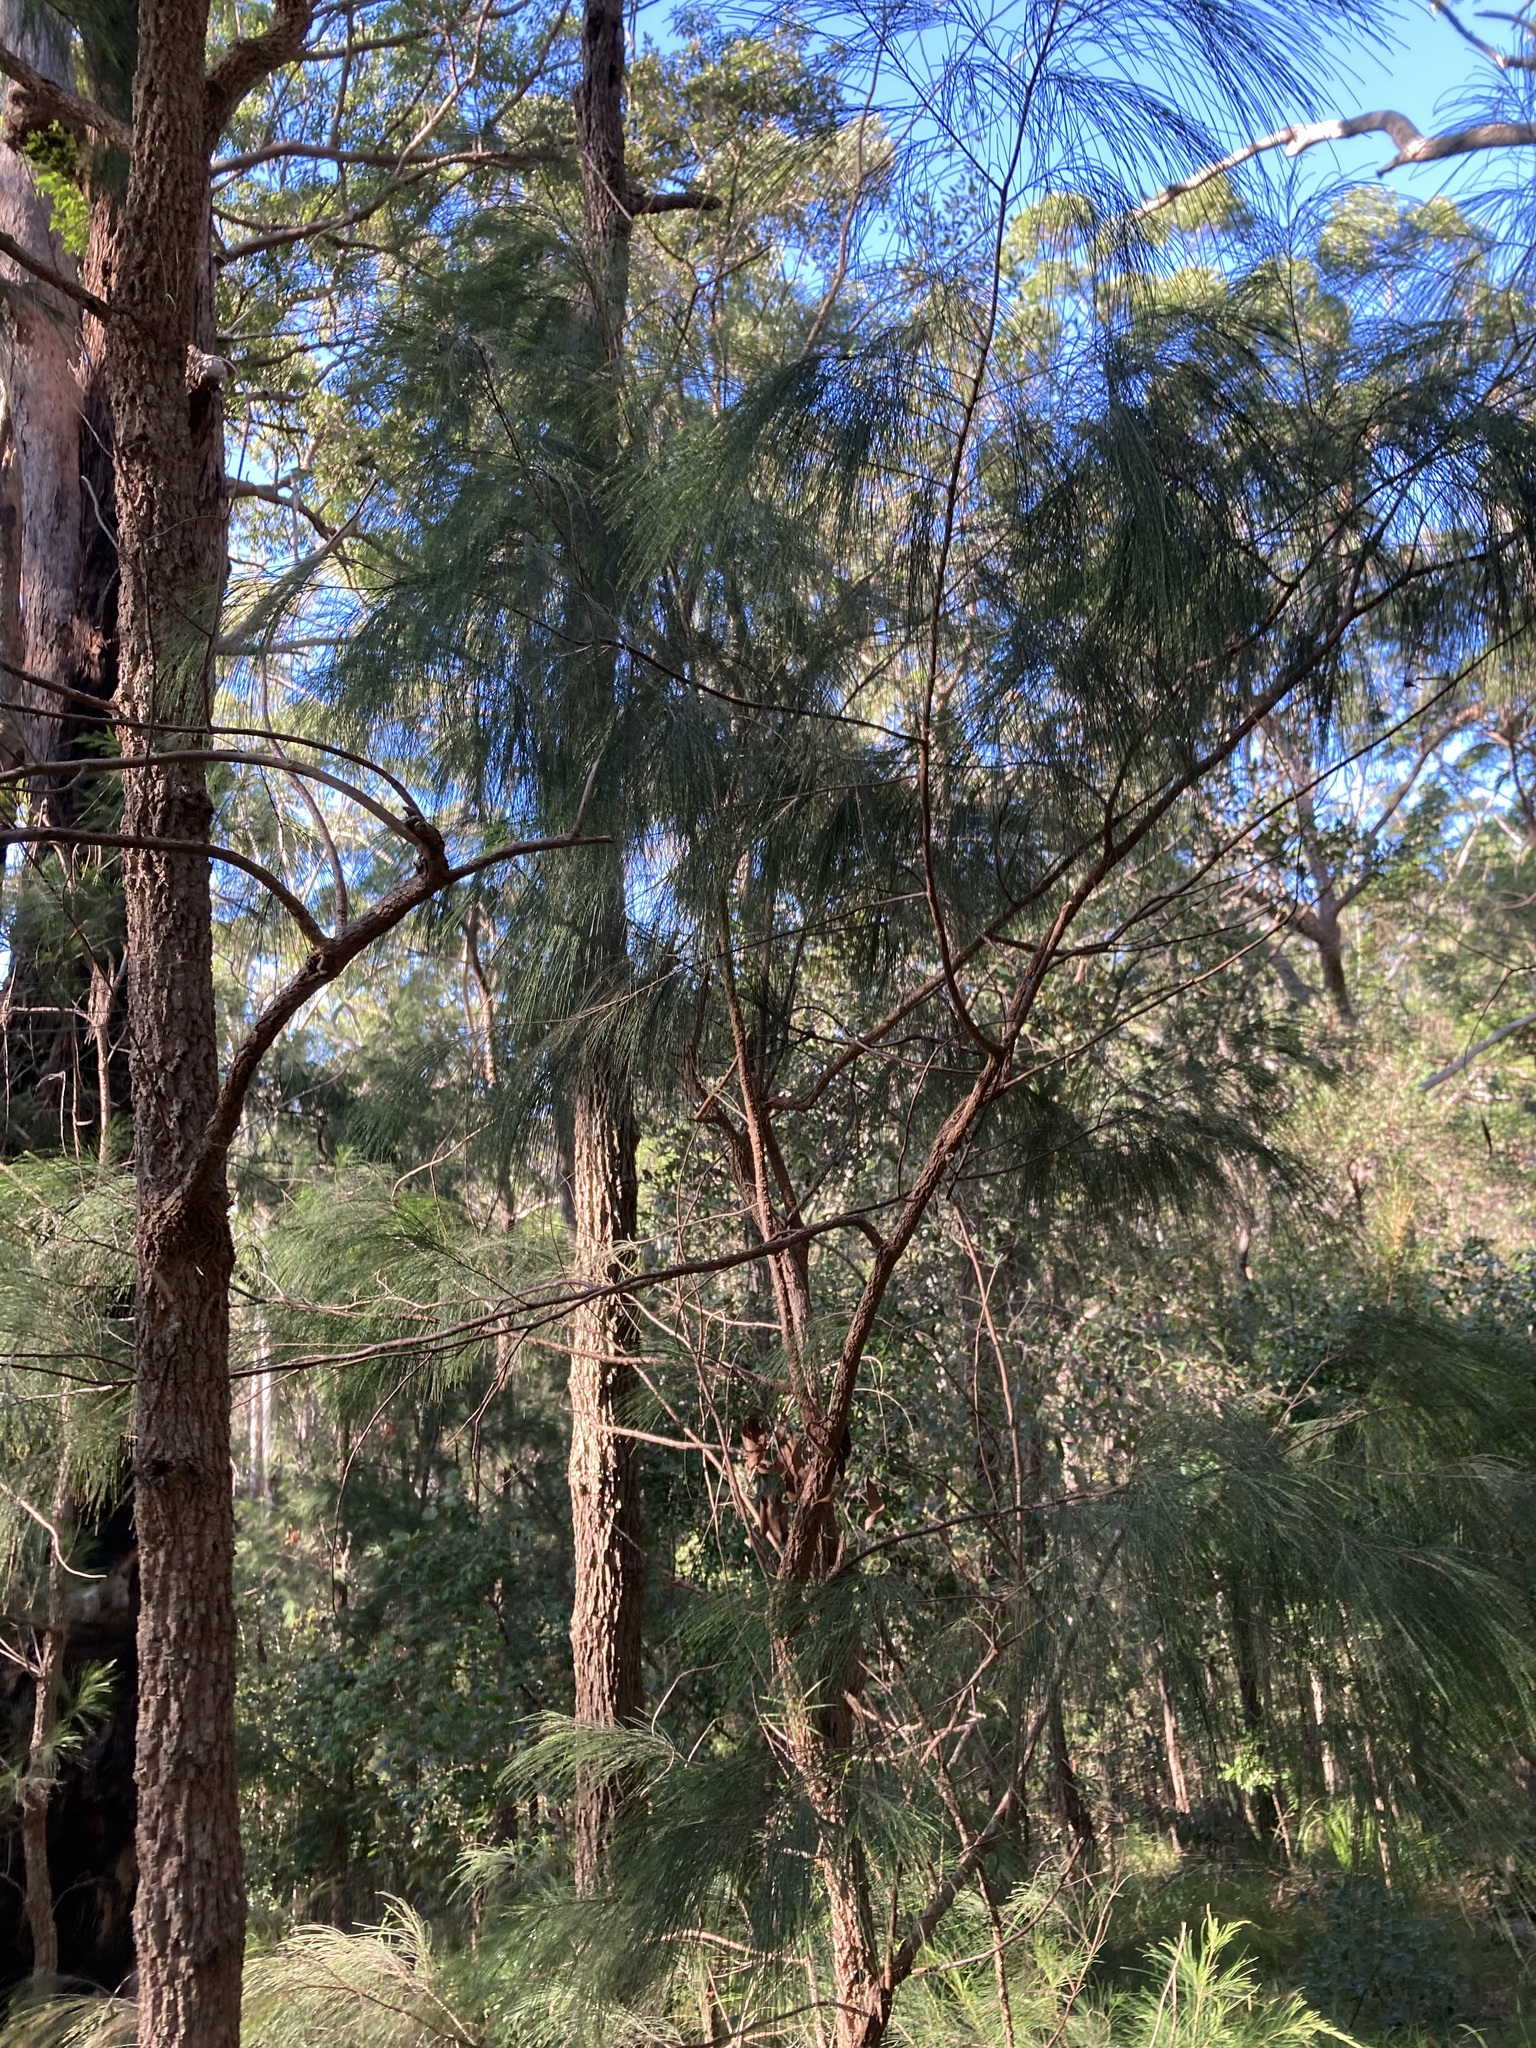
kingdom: Plantae
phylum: Tracheophyta
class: Magnoliopsida
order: Fagales
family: Casuarinaceae
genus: Allocasuarina
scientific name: Allocasuarina torulosa
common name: Forest-oak
